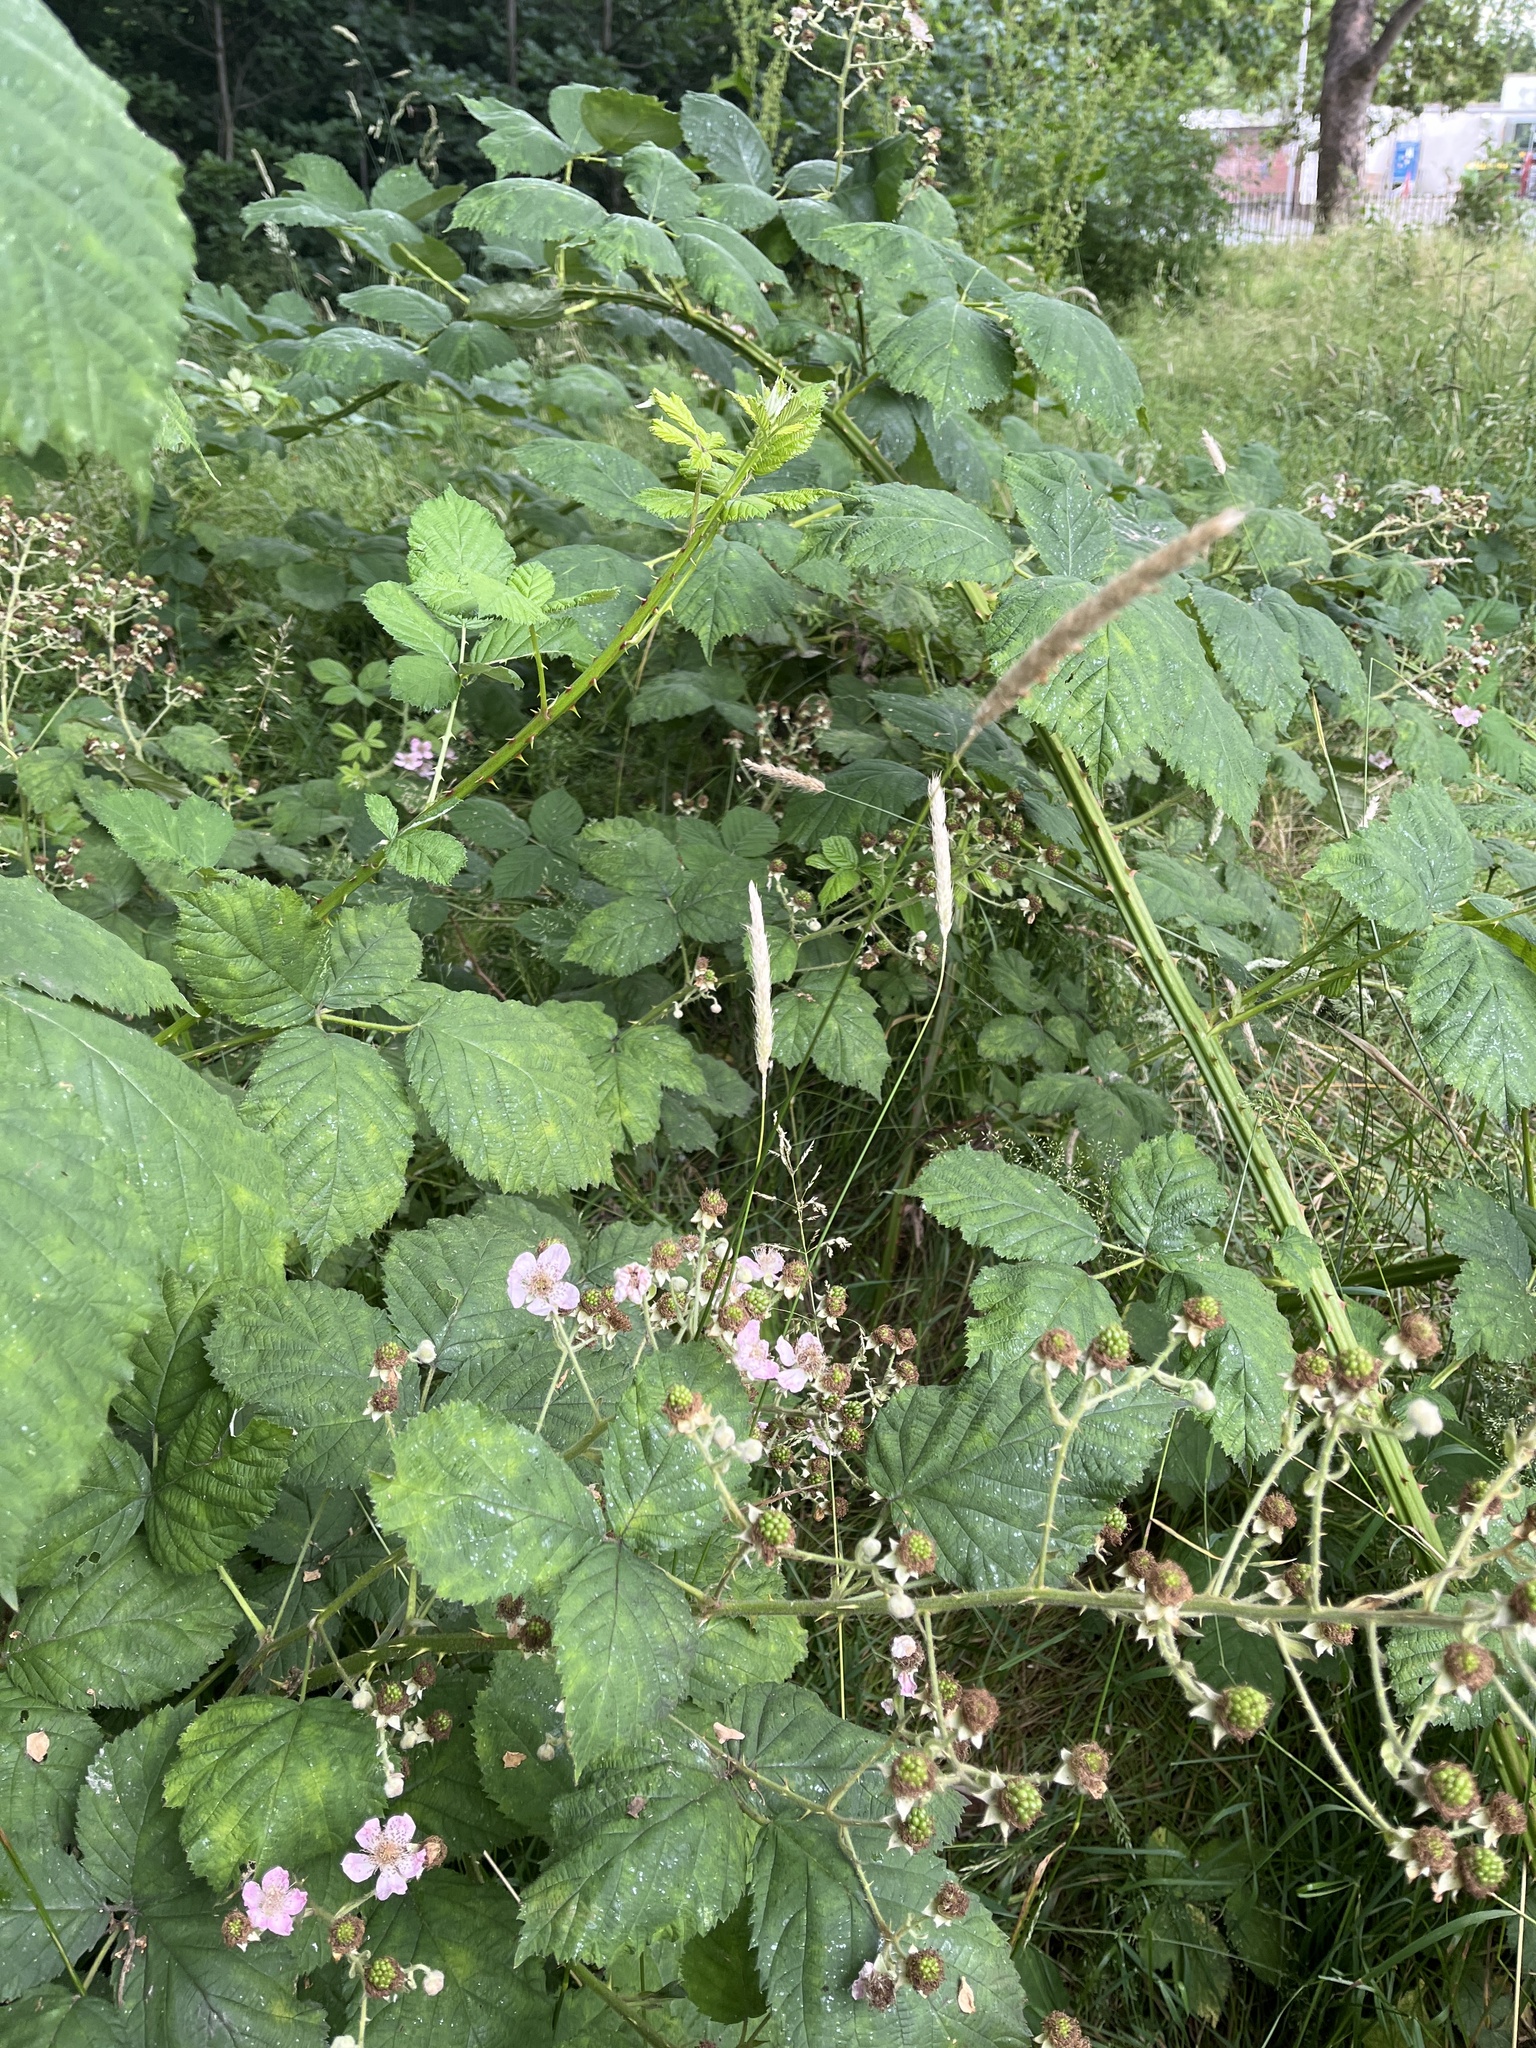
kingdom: Plantae
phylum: Tracheophyta
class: Liliopsida
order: Poales
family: Poaceae
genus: Alopecurus
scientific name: Alopecurus pratensis
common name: Meadow foxtail
